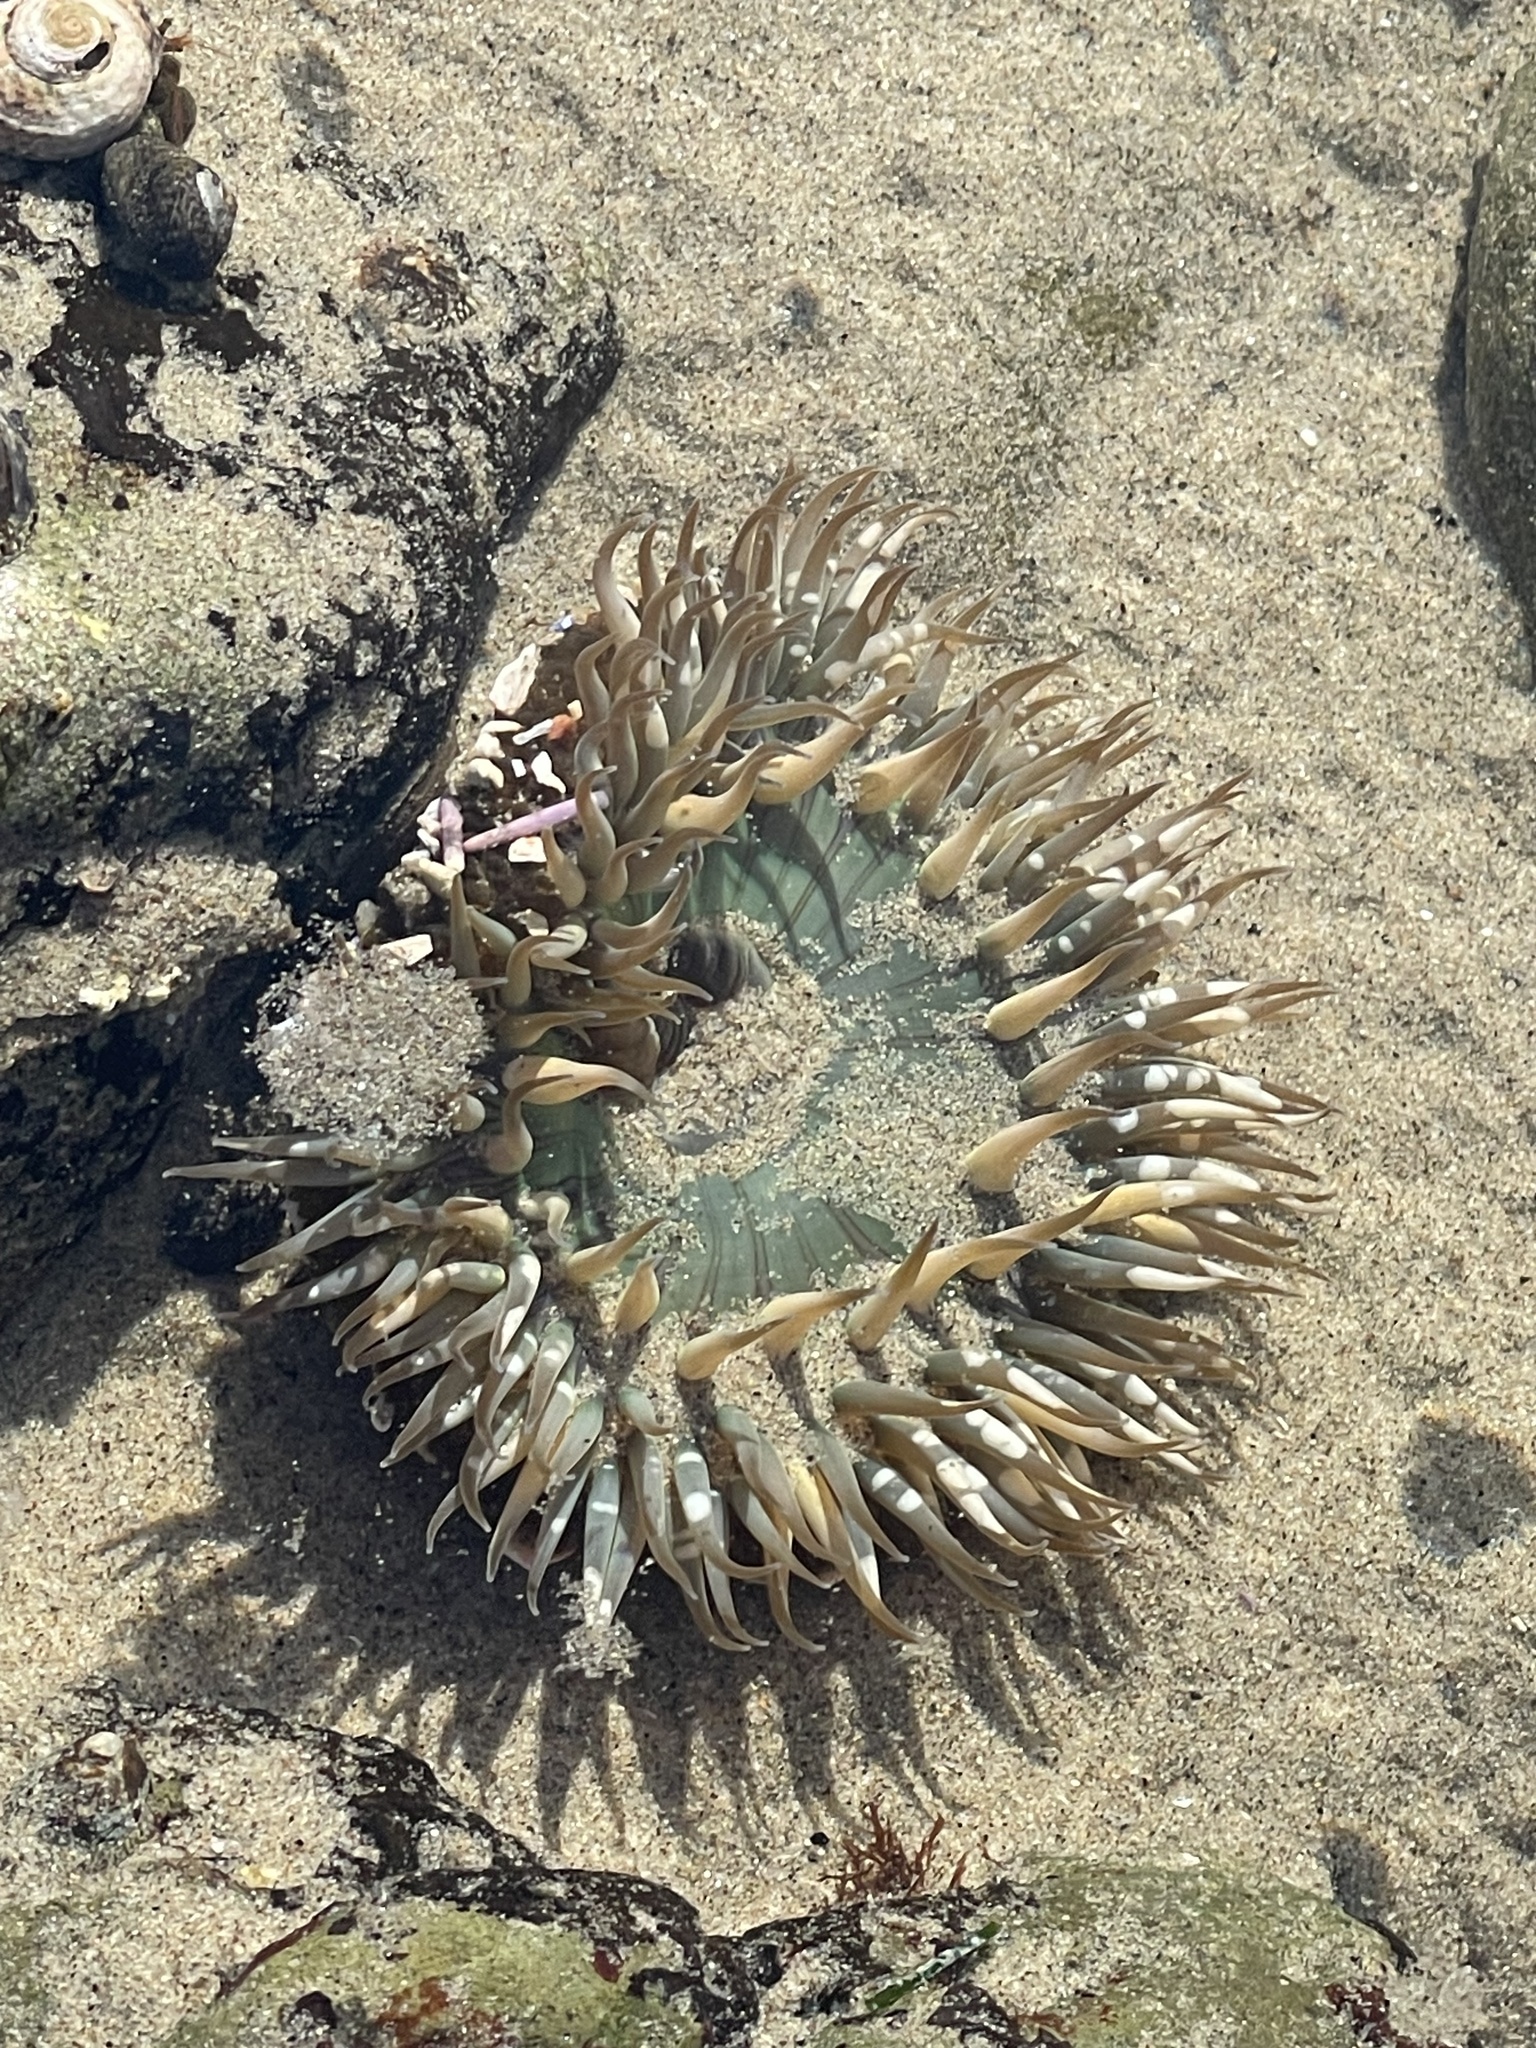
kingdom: Animalia
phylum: Cnidaria
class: Anthozoa
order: Actiniaria
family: Actiniidae
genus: Anthopleura
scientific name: Anthopleura sola
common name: Sun anemone
